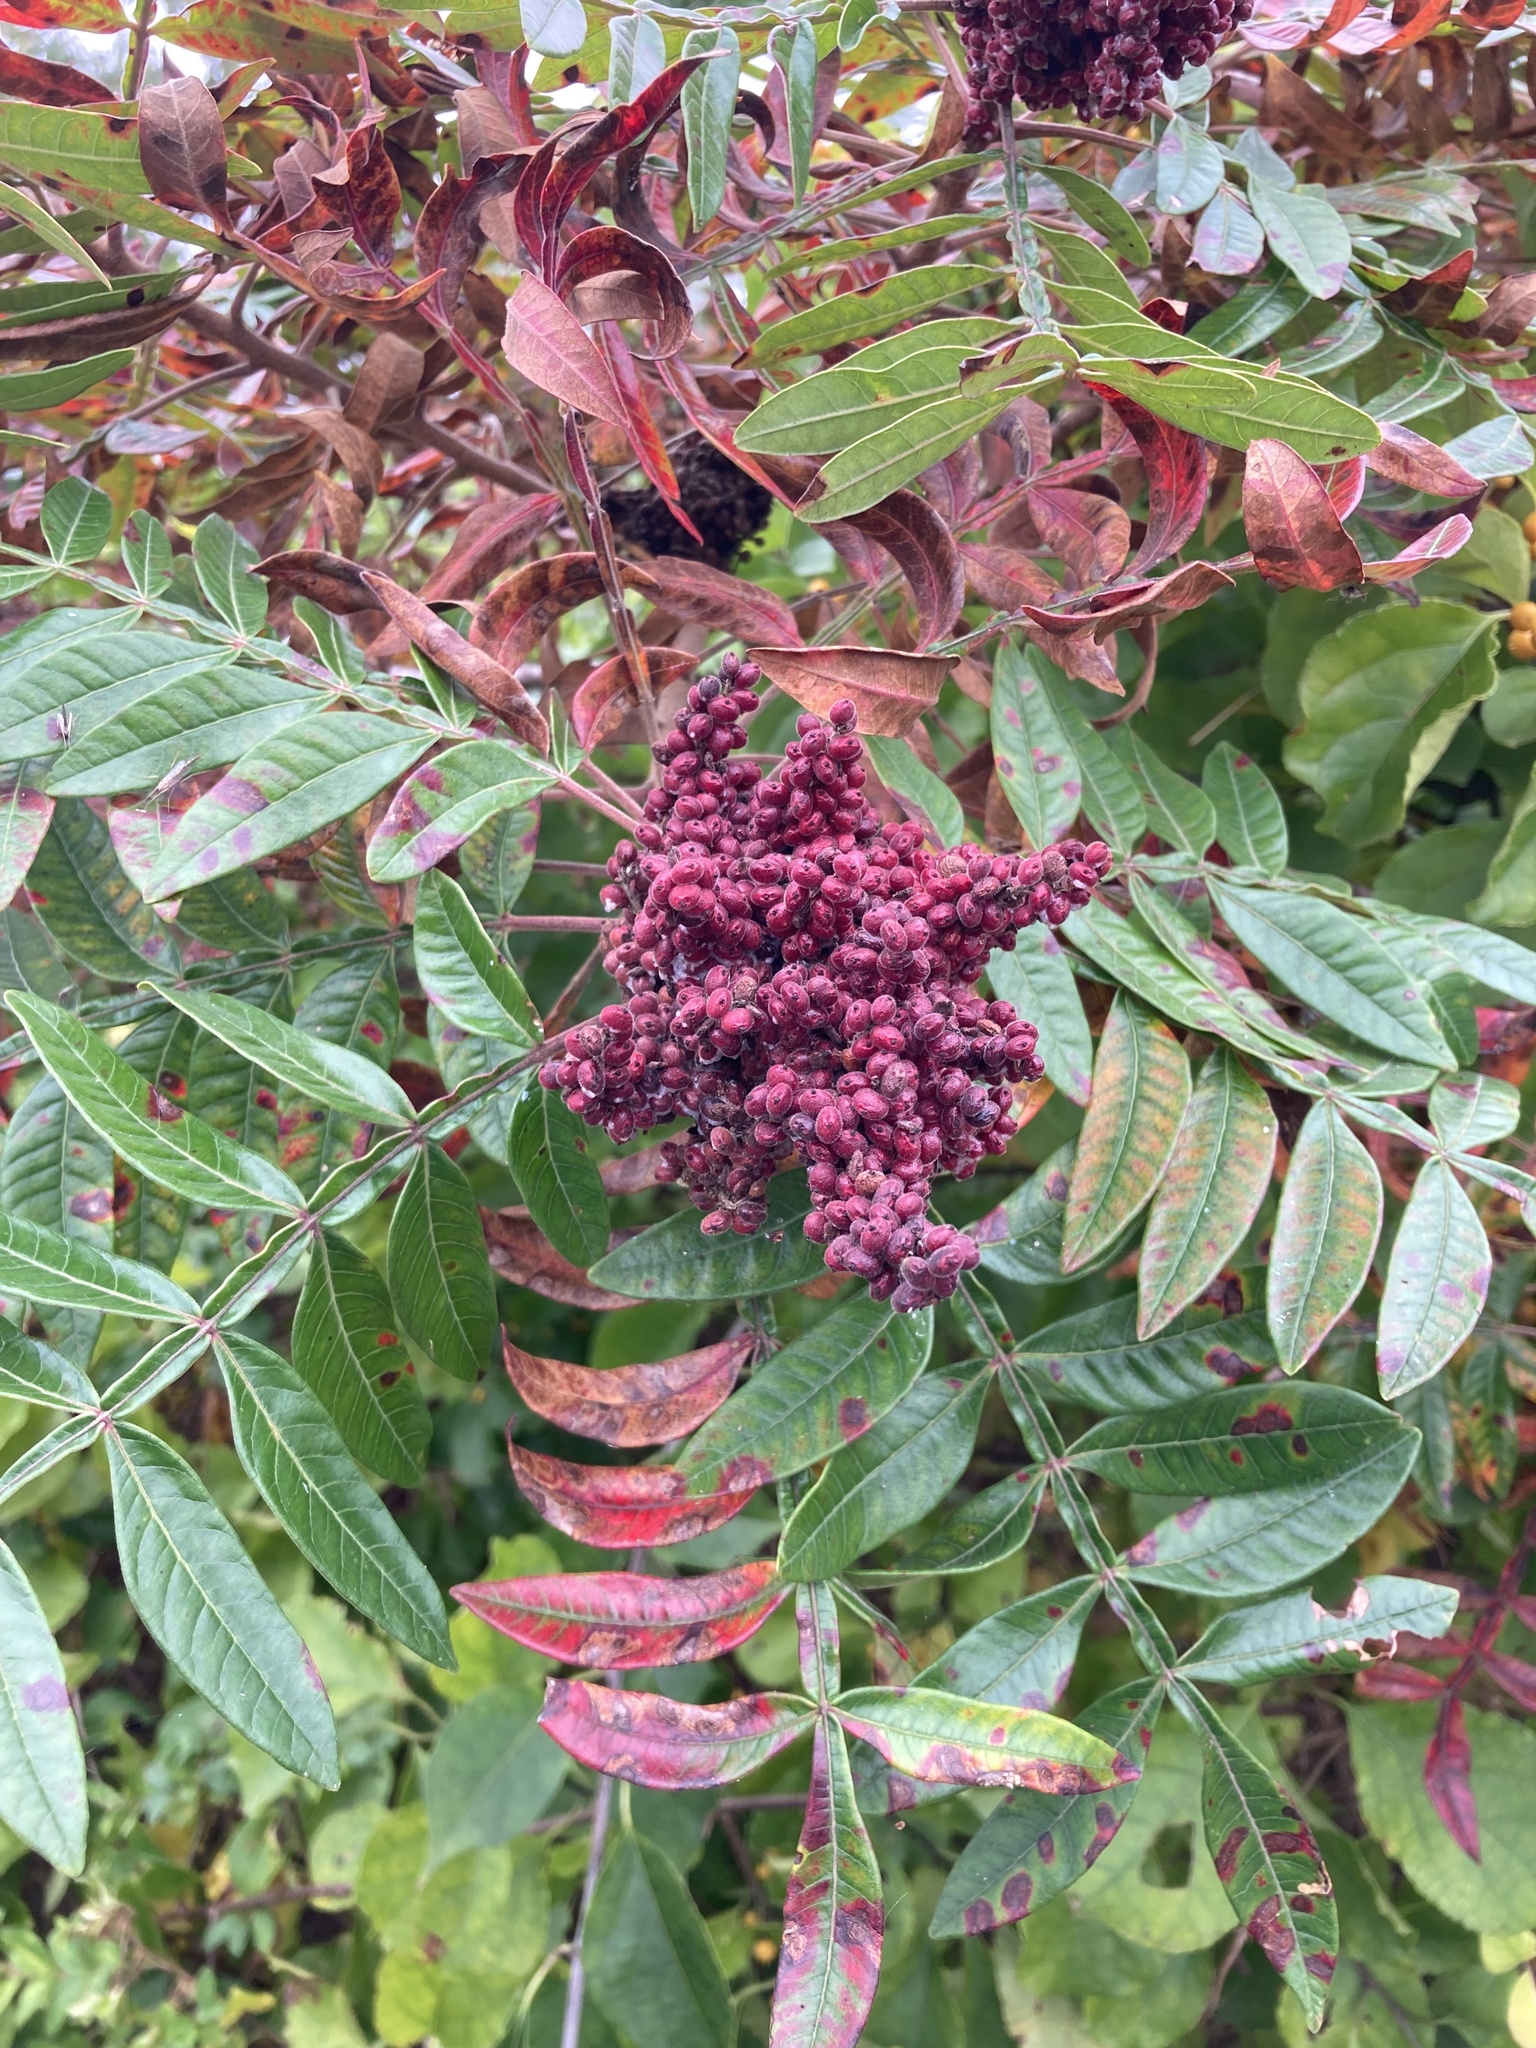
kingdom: Plantae
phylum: Tracheophyta
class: Magnoliopsida
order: Sapindales
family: Anacardiaceae
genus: Rhus
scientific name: Rhus copallina
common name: Shining sumac
